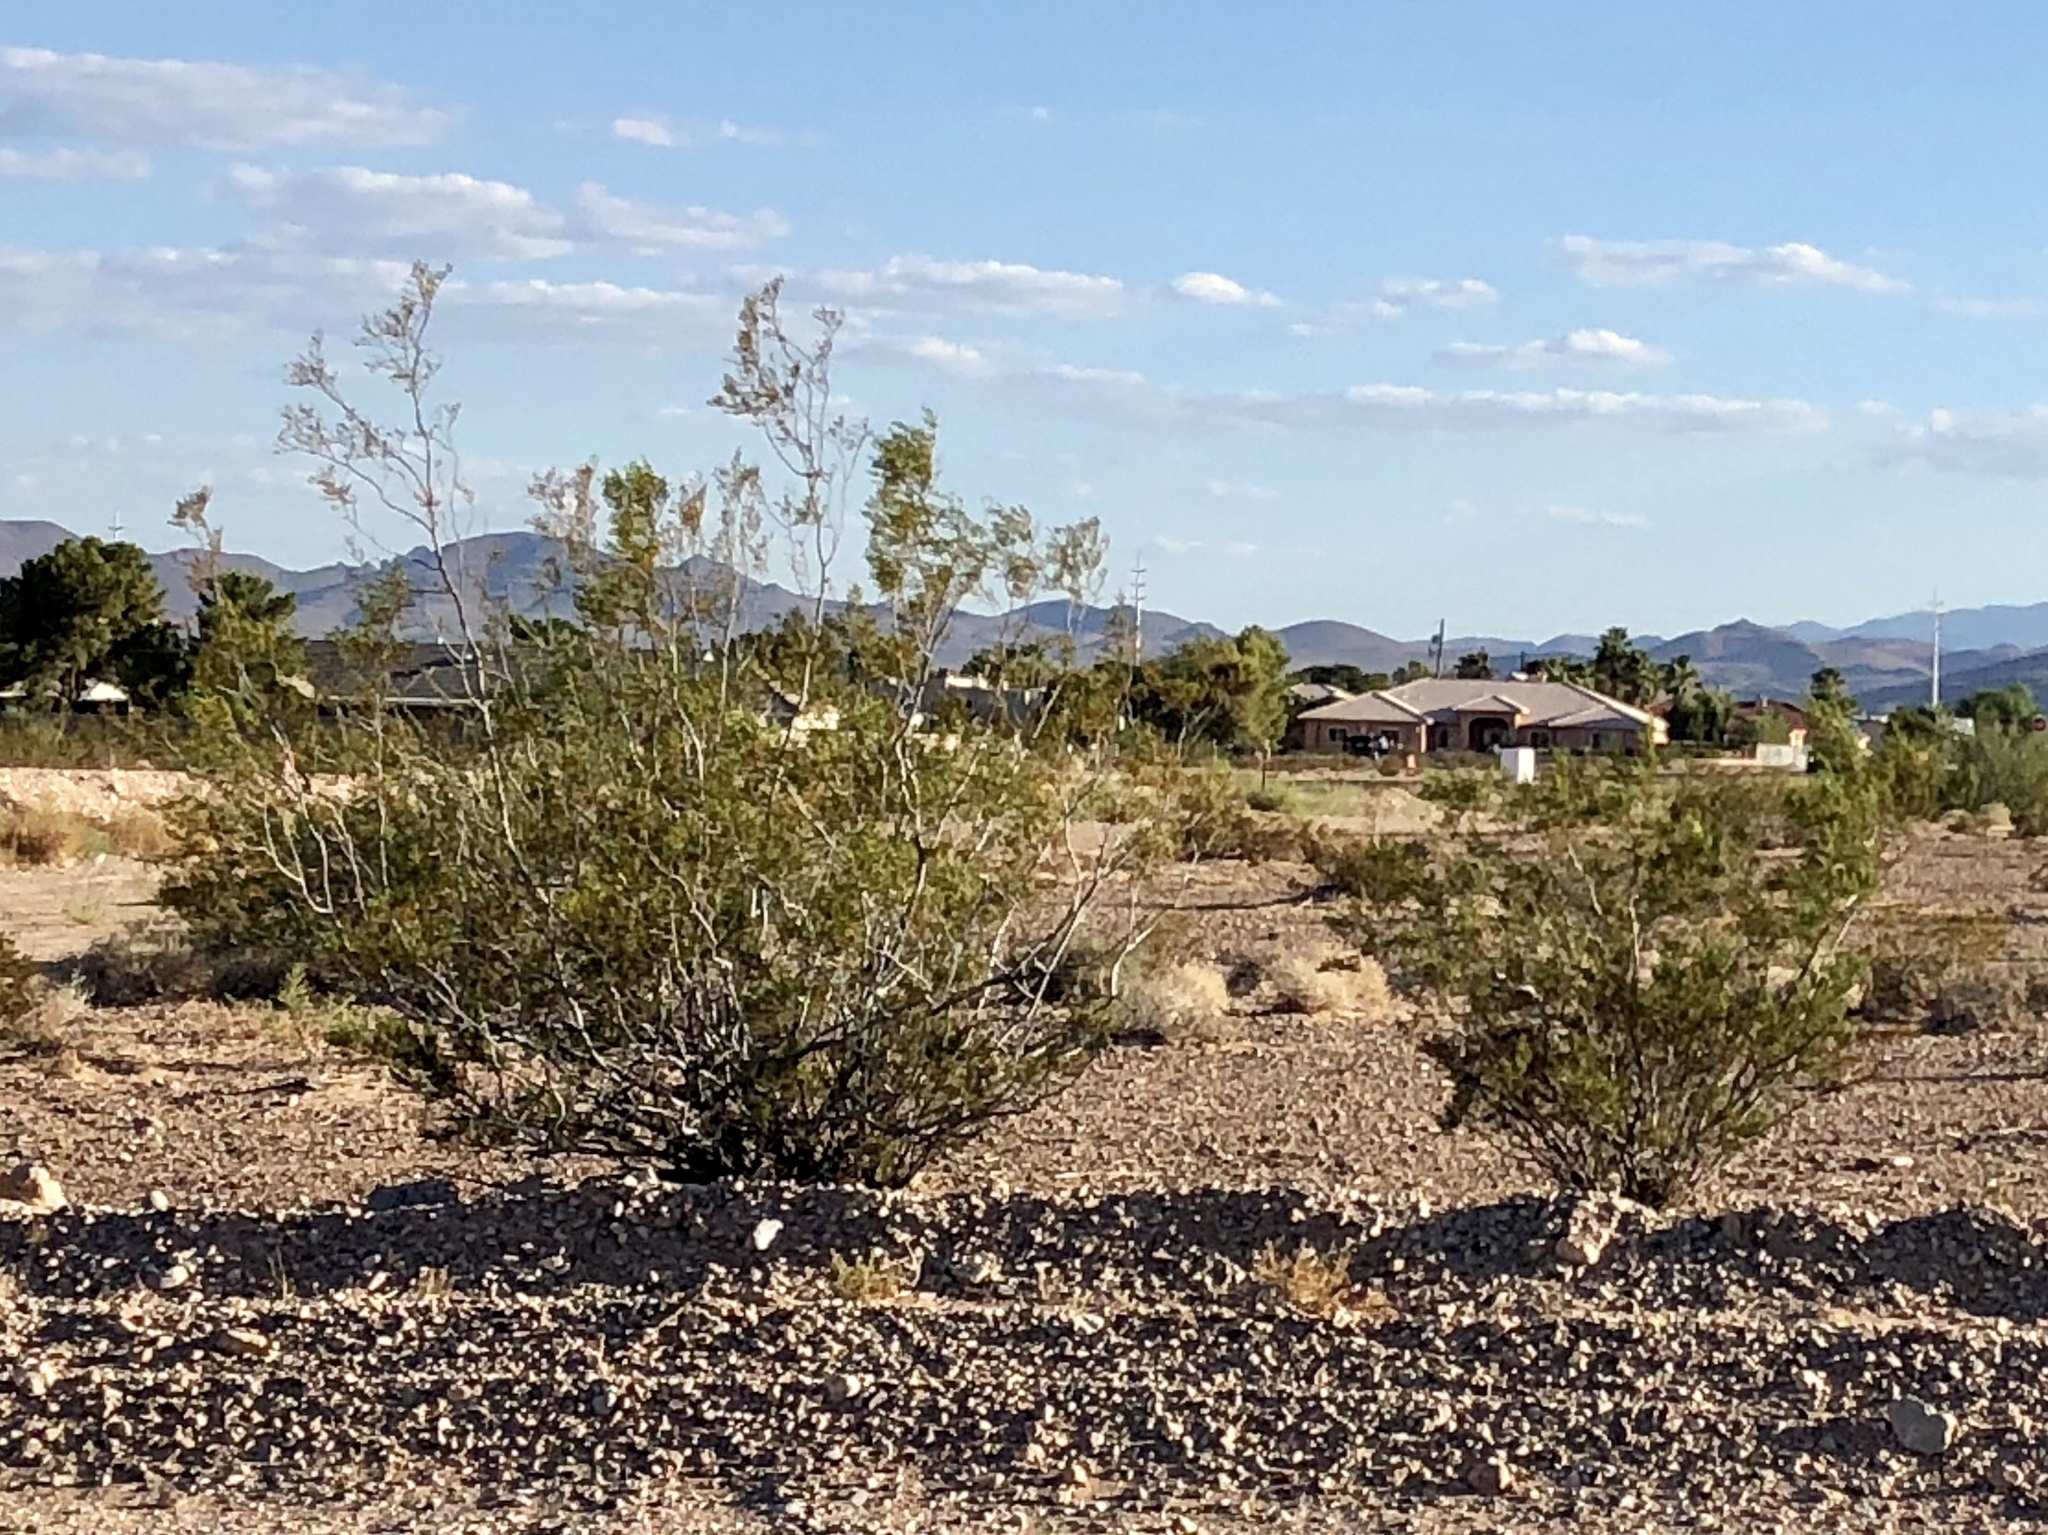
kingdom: Plantae
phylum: Tracheophyta
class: Magnoliopsida
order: Zygophyllales
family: Zygophyllaceae
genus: Larrea
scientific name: Larrea tridentata
